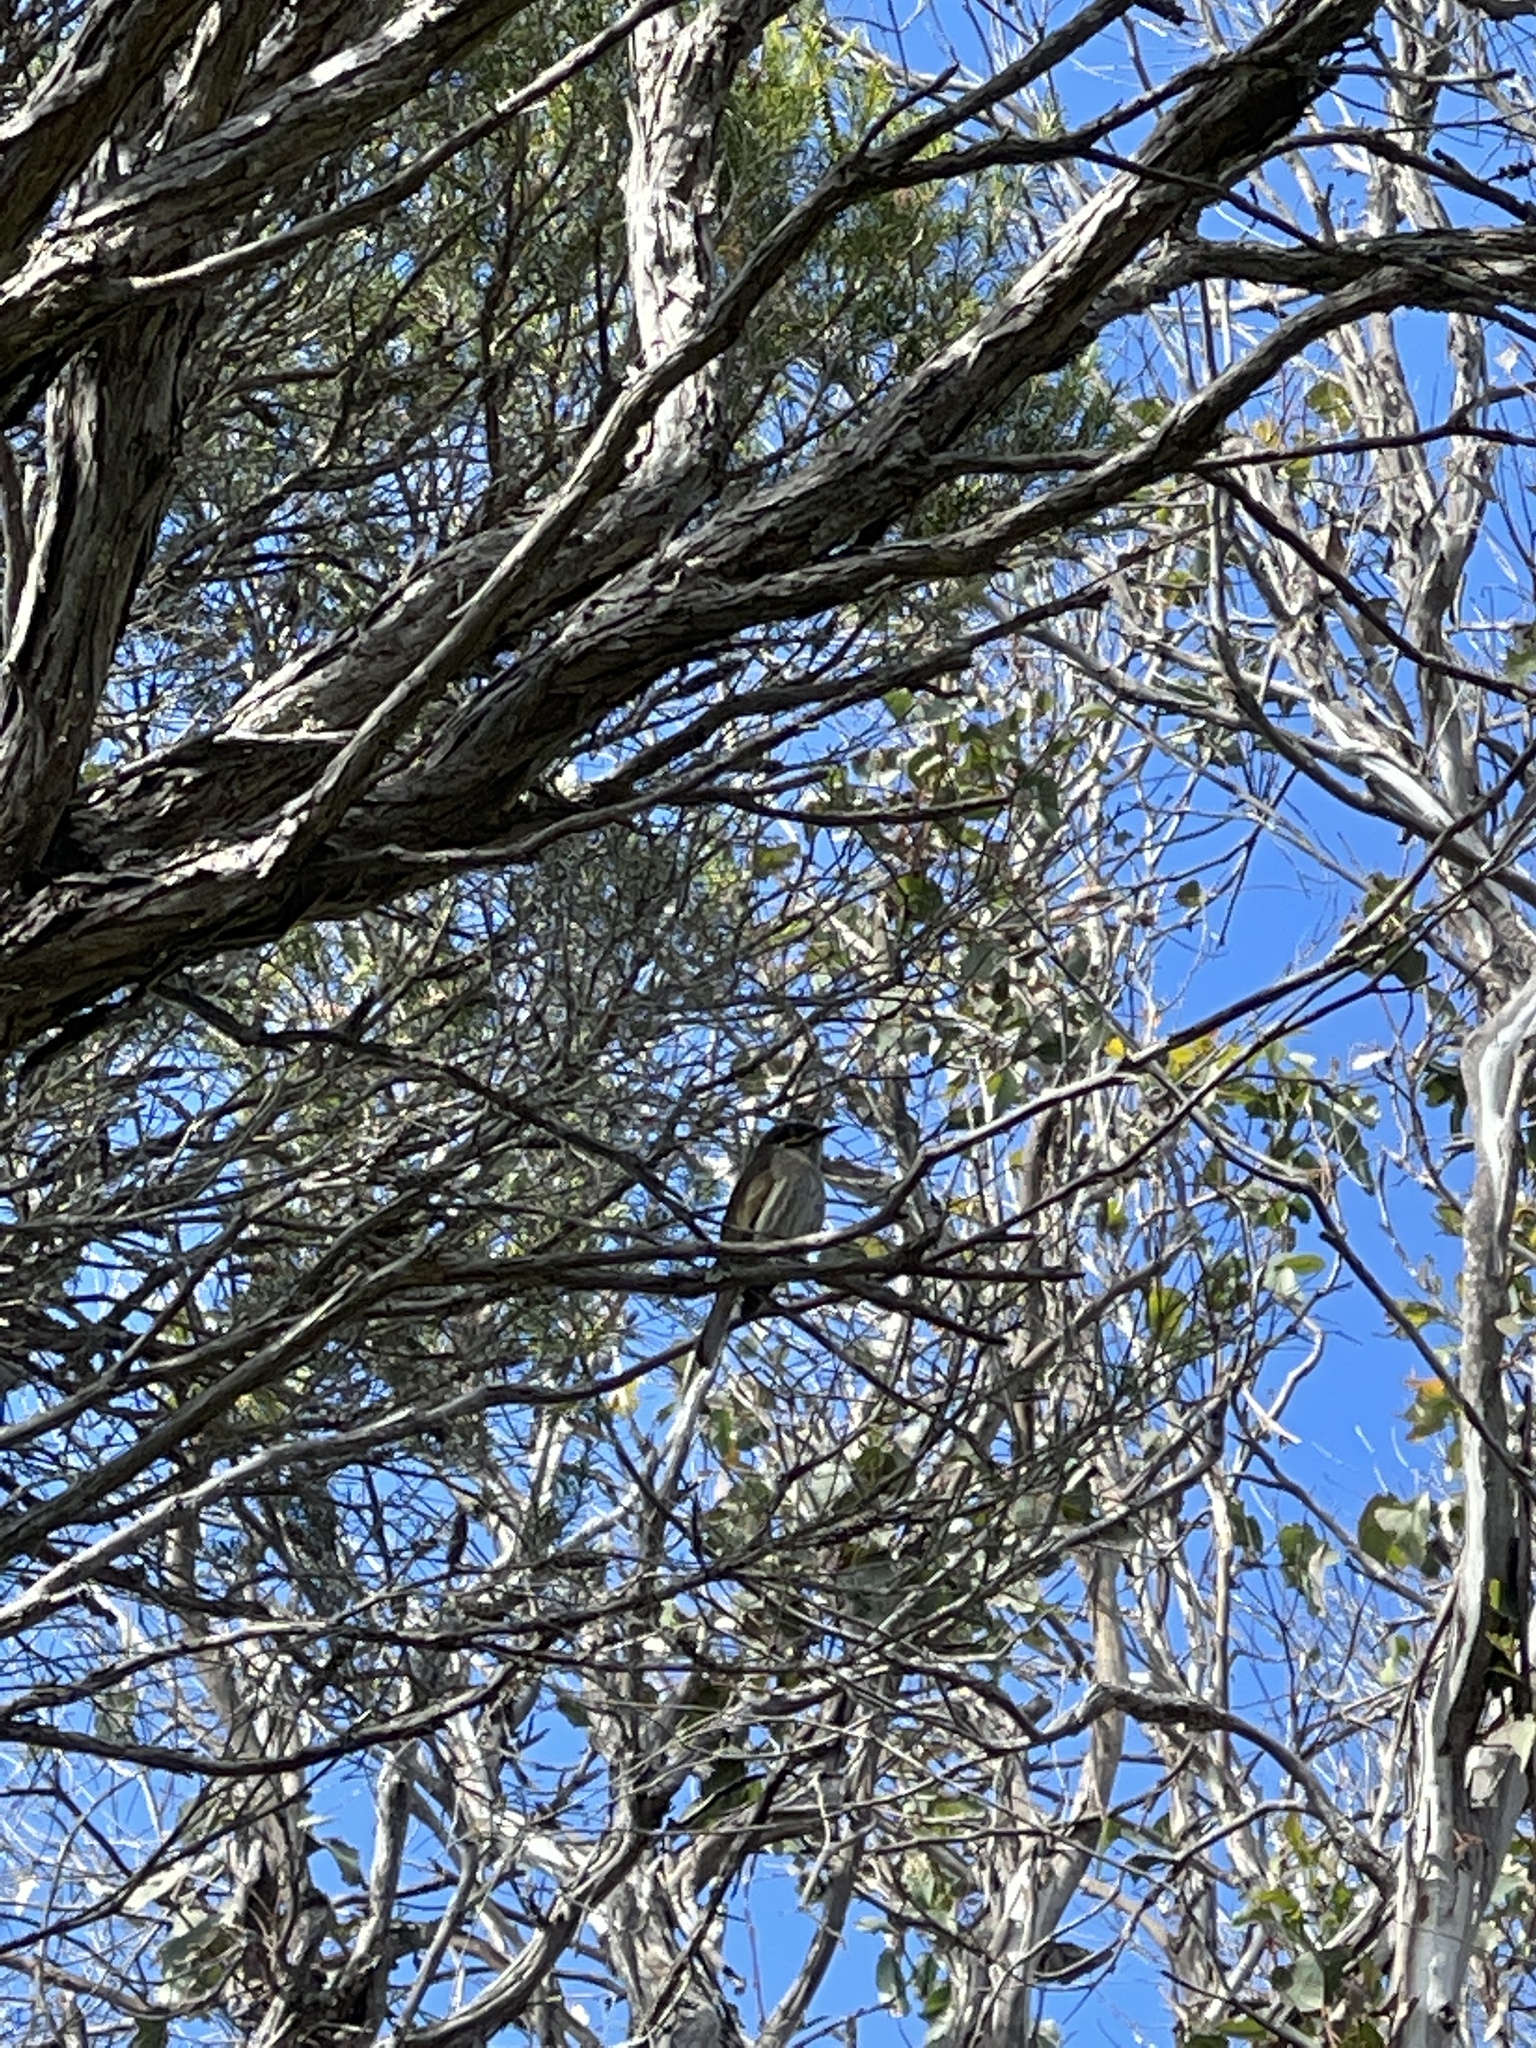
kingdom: Animalia
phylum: Chordata
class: Aves
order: Passeriformes
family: Meliphagidae
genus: Caligavis
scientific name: Caligavis chrysops
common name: Yellow-faced honeyeater
